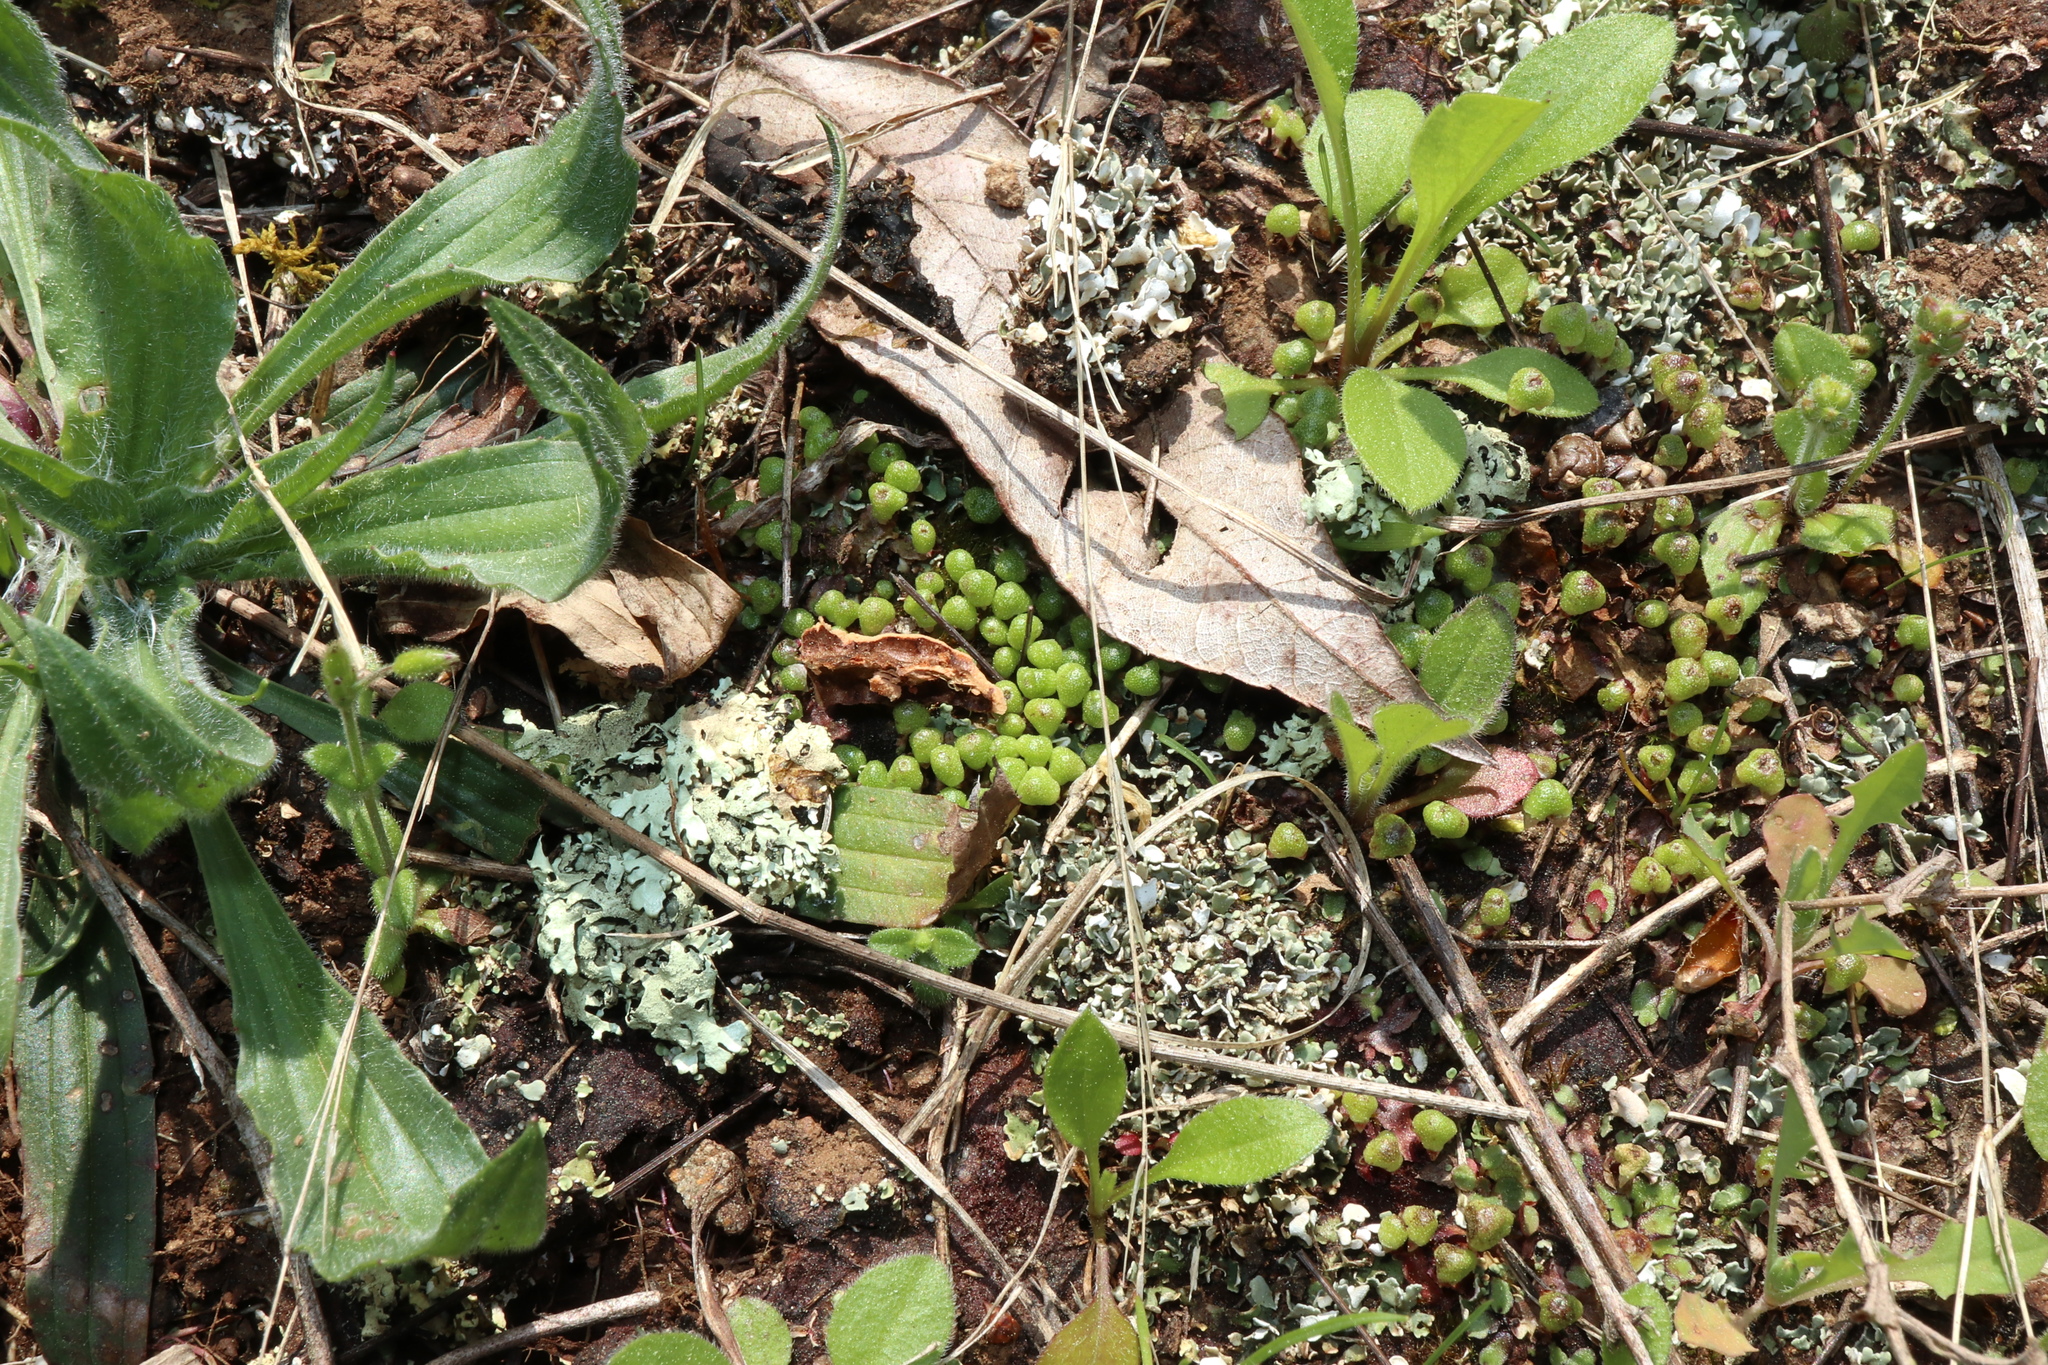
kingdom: Plantae
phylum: Marchantiophyta
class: Marchantiopsida
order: Marchantiales
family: Aytoniaceae
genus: Asterella
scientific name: Asterella tenella
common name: Delicate starwort
